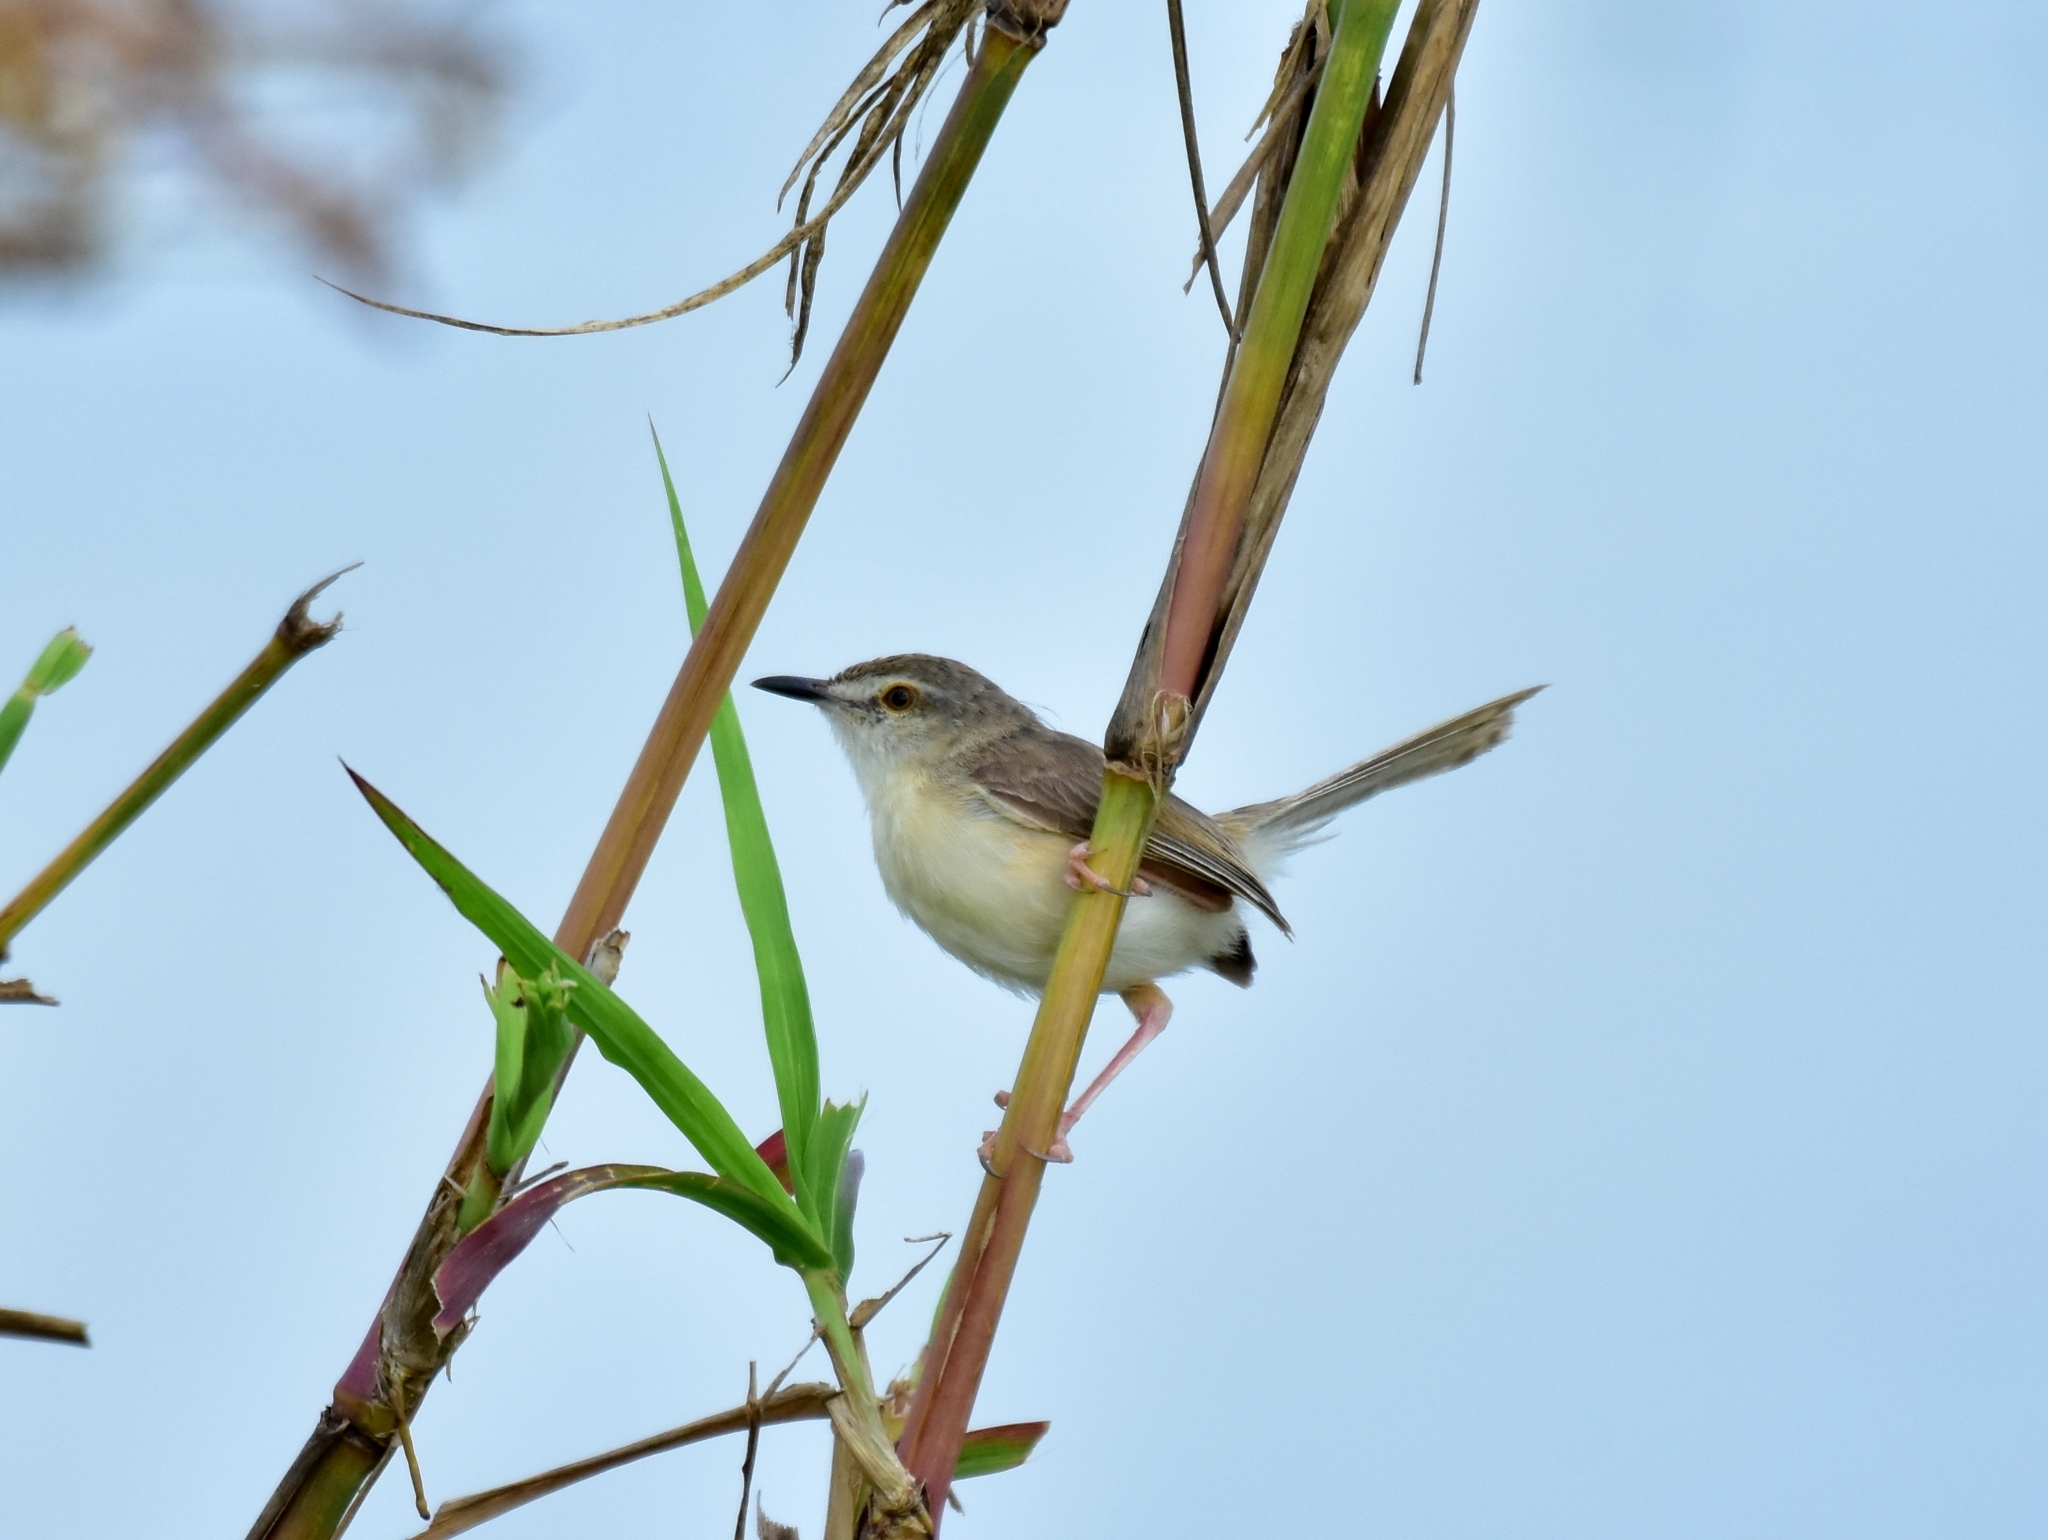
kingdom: Animalia
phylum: Chordata
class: Aves
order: Passeriformes
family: Cisticolidae
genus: Prinia
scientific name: Prinia inornata
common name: Plain prinia
